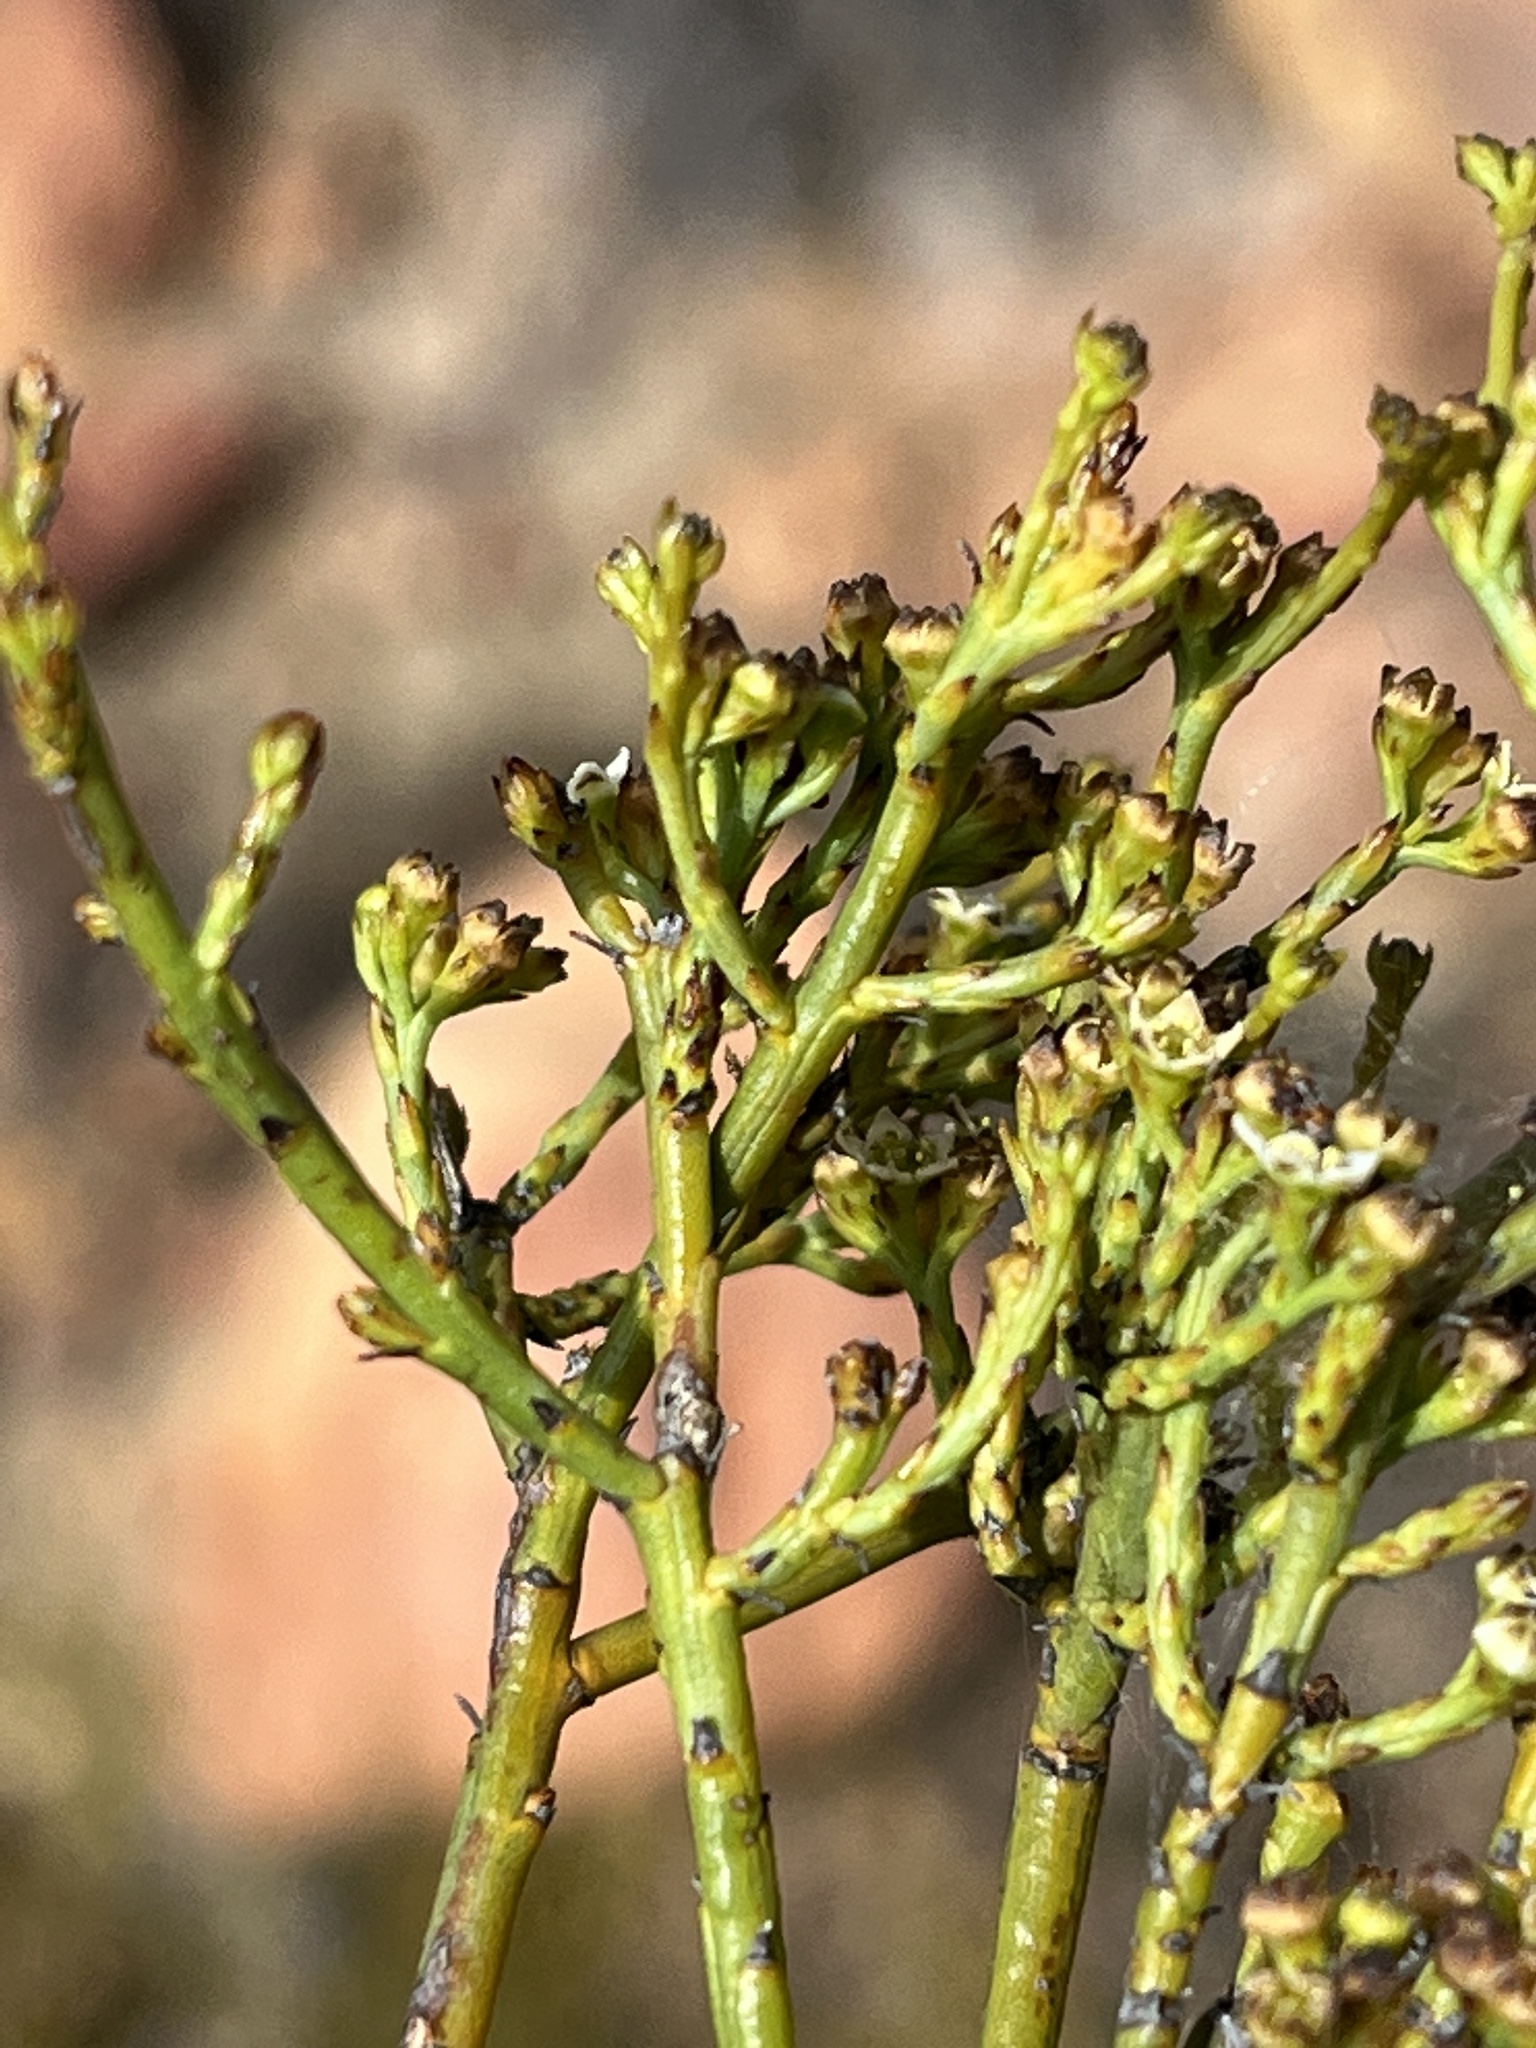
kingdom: Plantae
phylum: Tracheophyta
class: Magnoliopsida
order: Santalales
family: Thesiaceae
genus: Thesium
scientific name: Thesium nigromontanum
